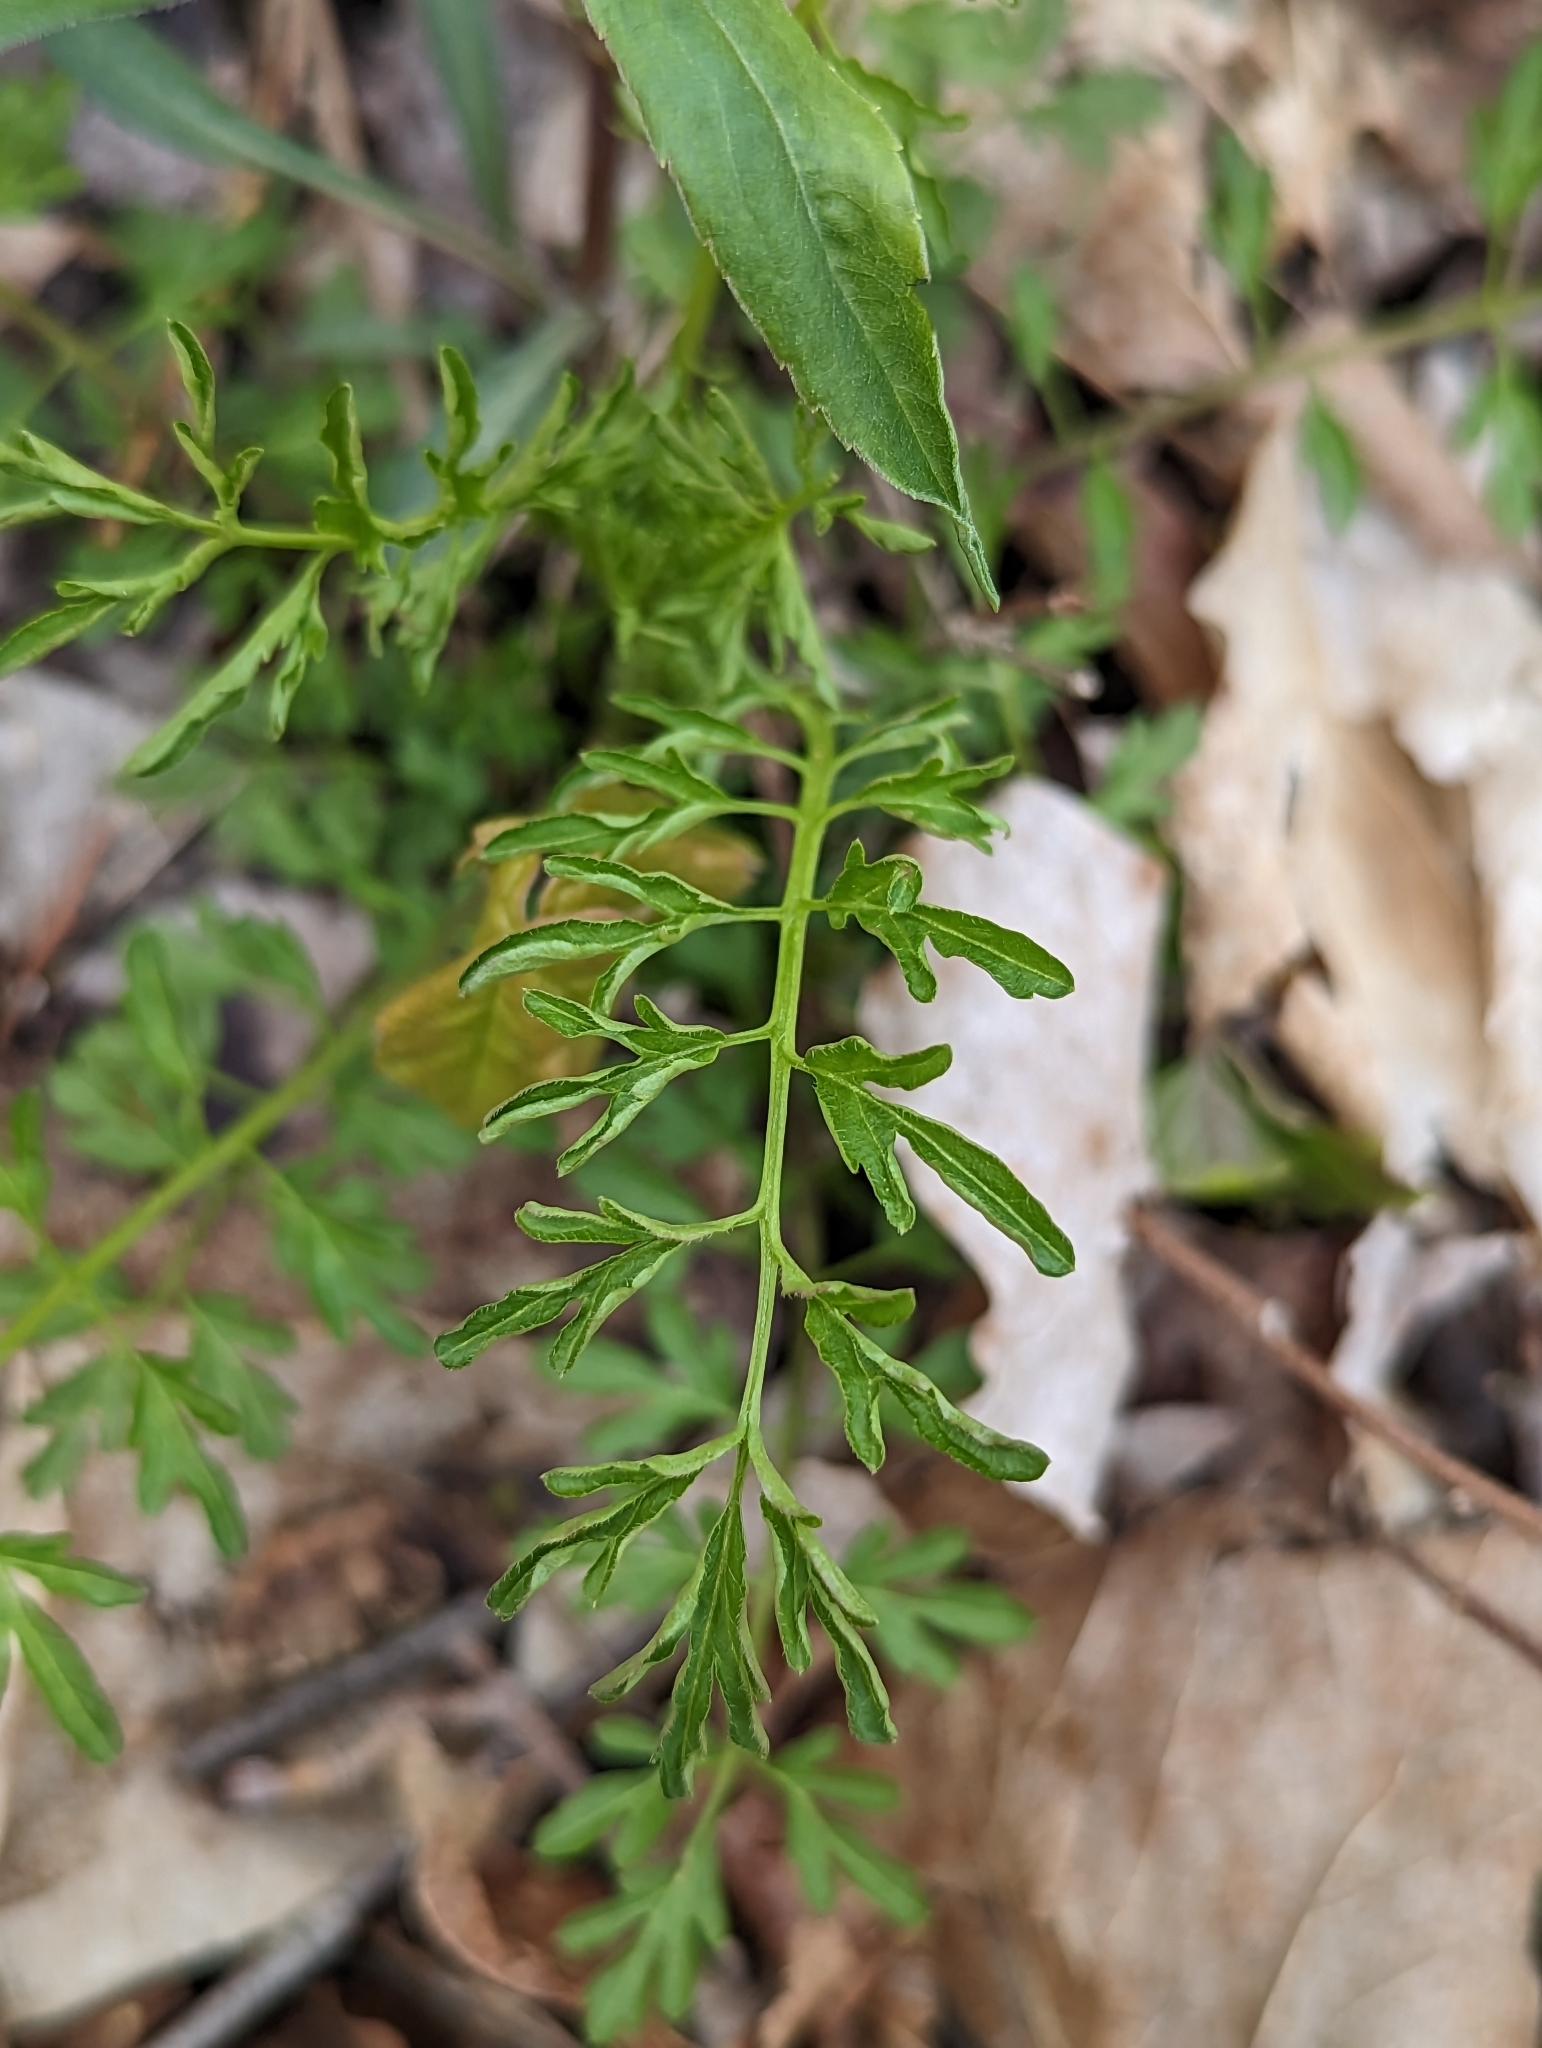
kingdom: Plantae
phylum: Tracheophyta
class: Magnoliopsida
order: Brassicales
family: Brassicaceae
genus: Cardamine
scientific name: Cardamine impatiens
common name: Narrow-leaved bitter-cress
